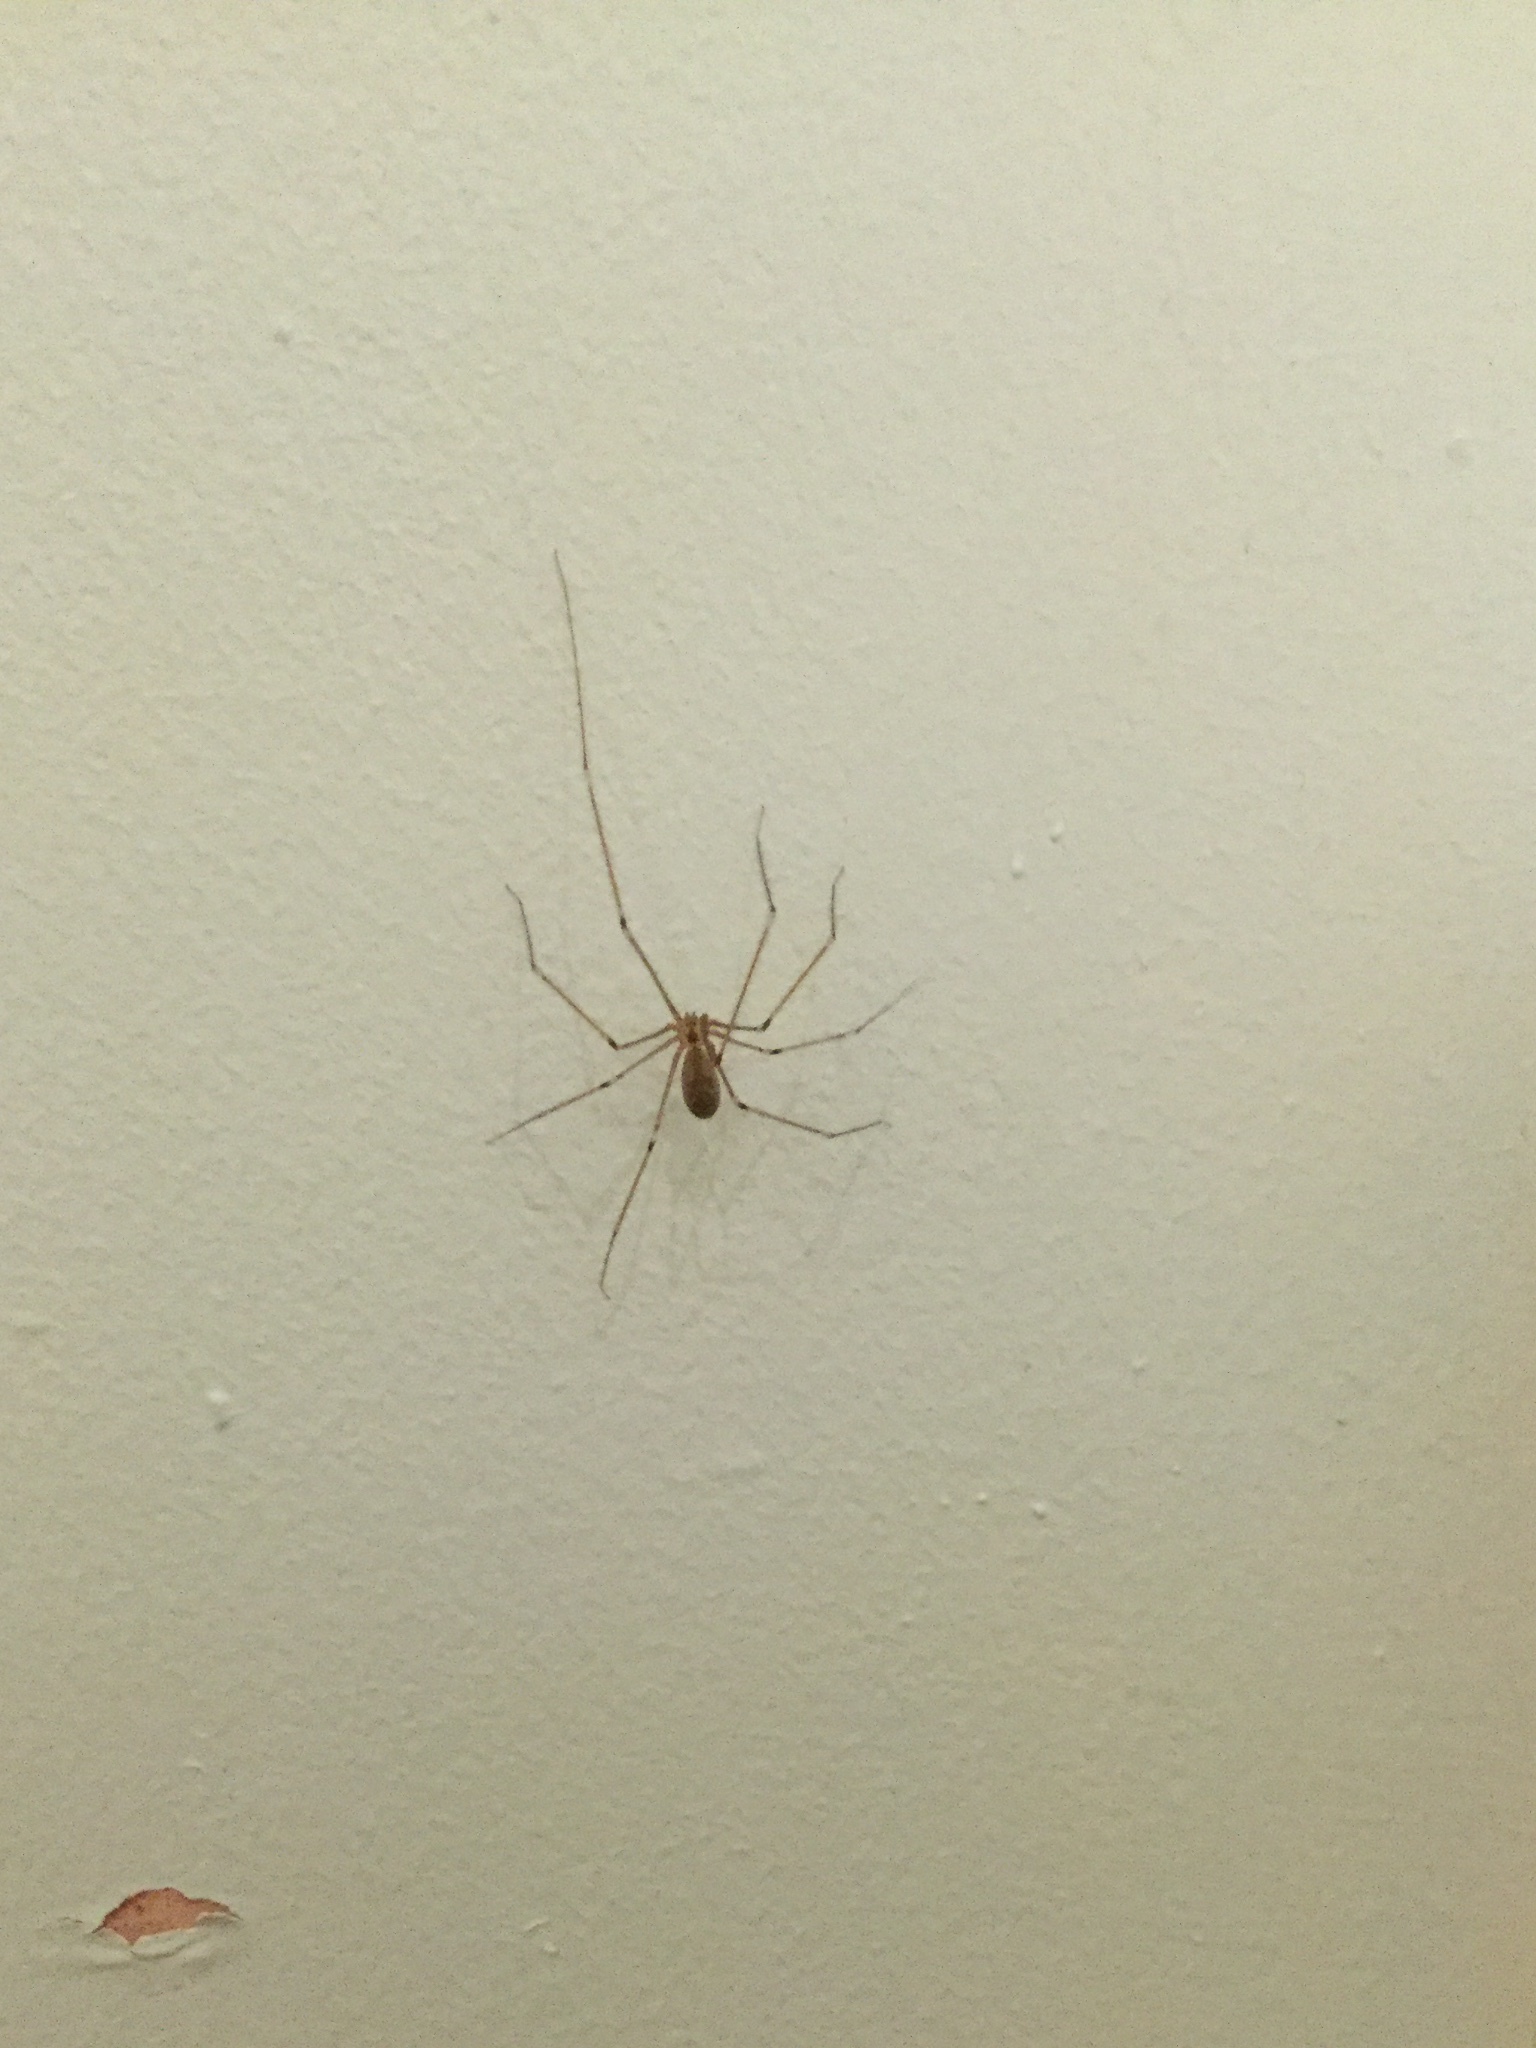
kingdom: Animalia
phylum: Arthropoda
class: Arachnida
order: Araneae
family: Pholcidae
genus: Pholcus
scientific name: Pholcus phalangioides
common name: Longbodied cellar spider
